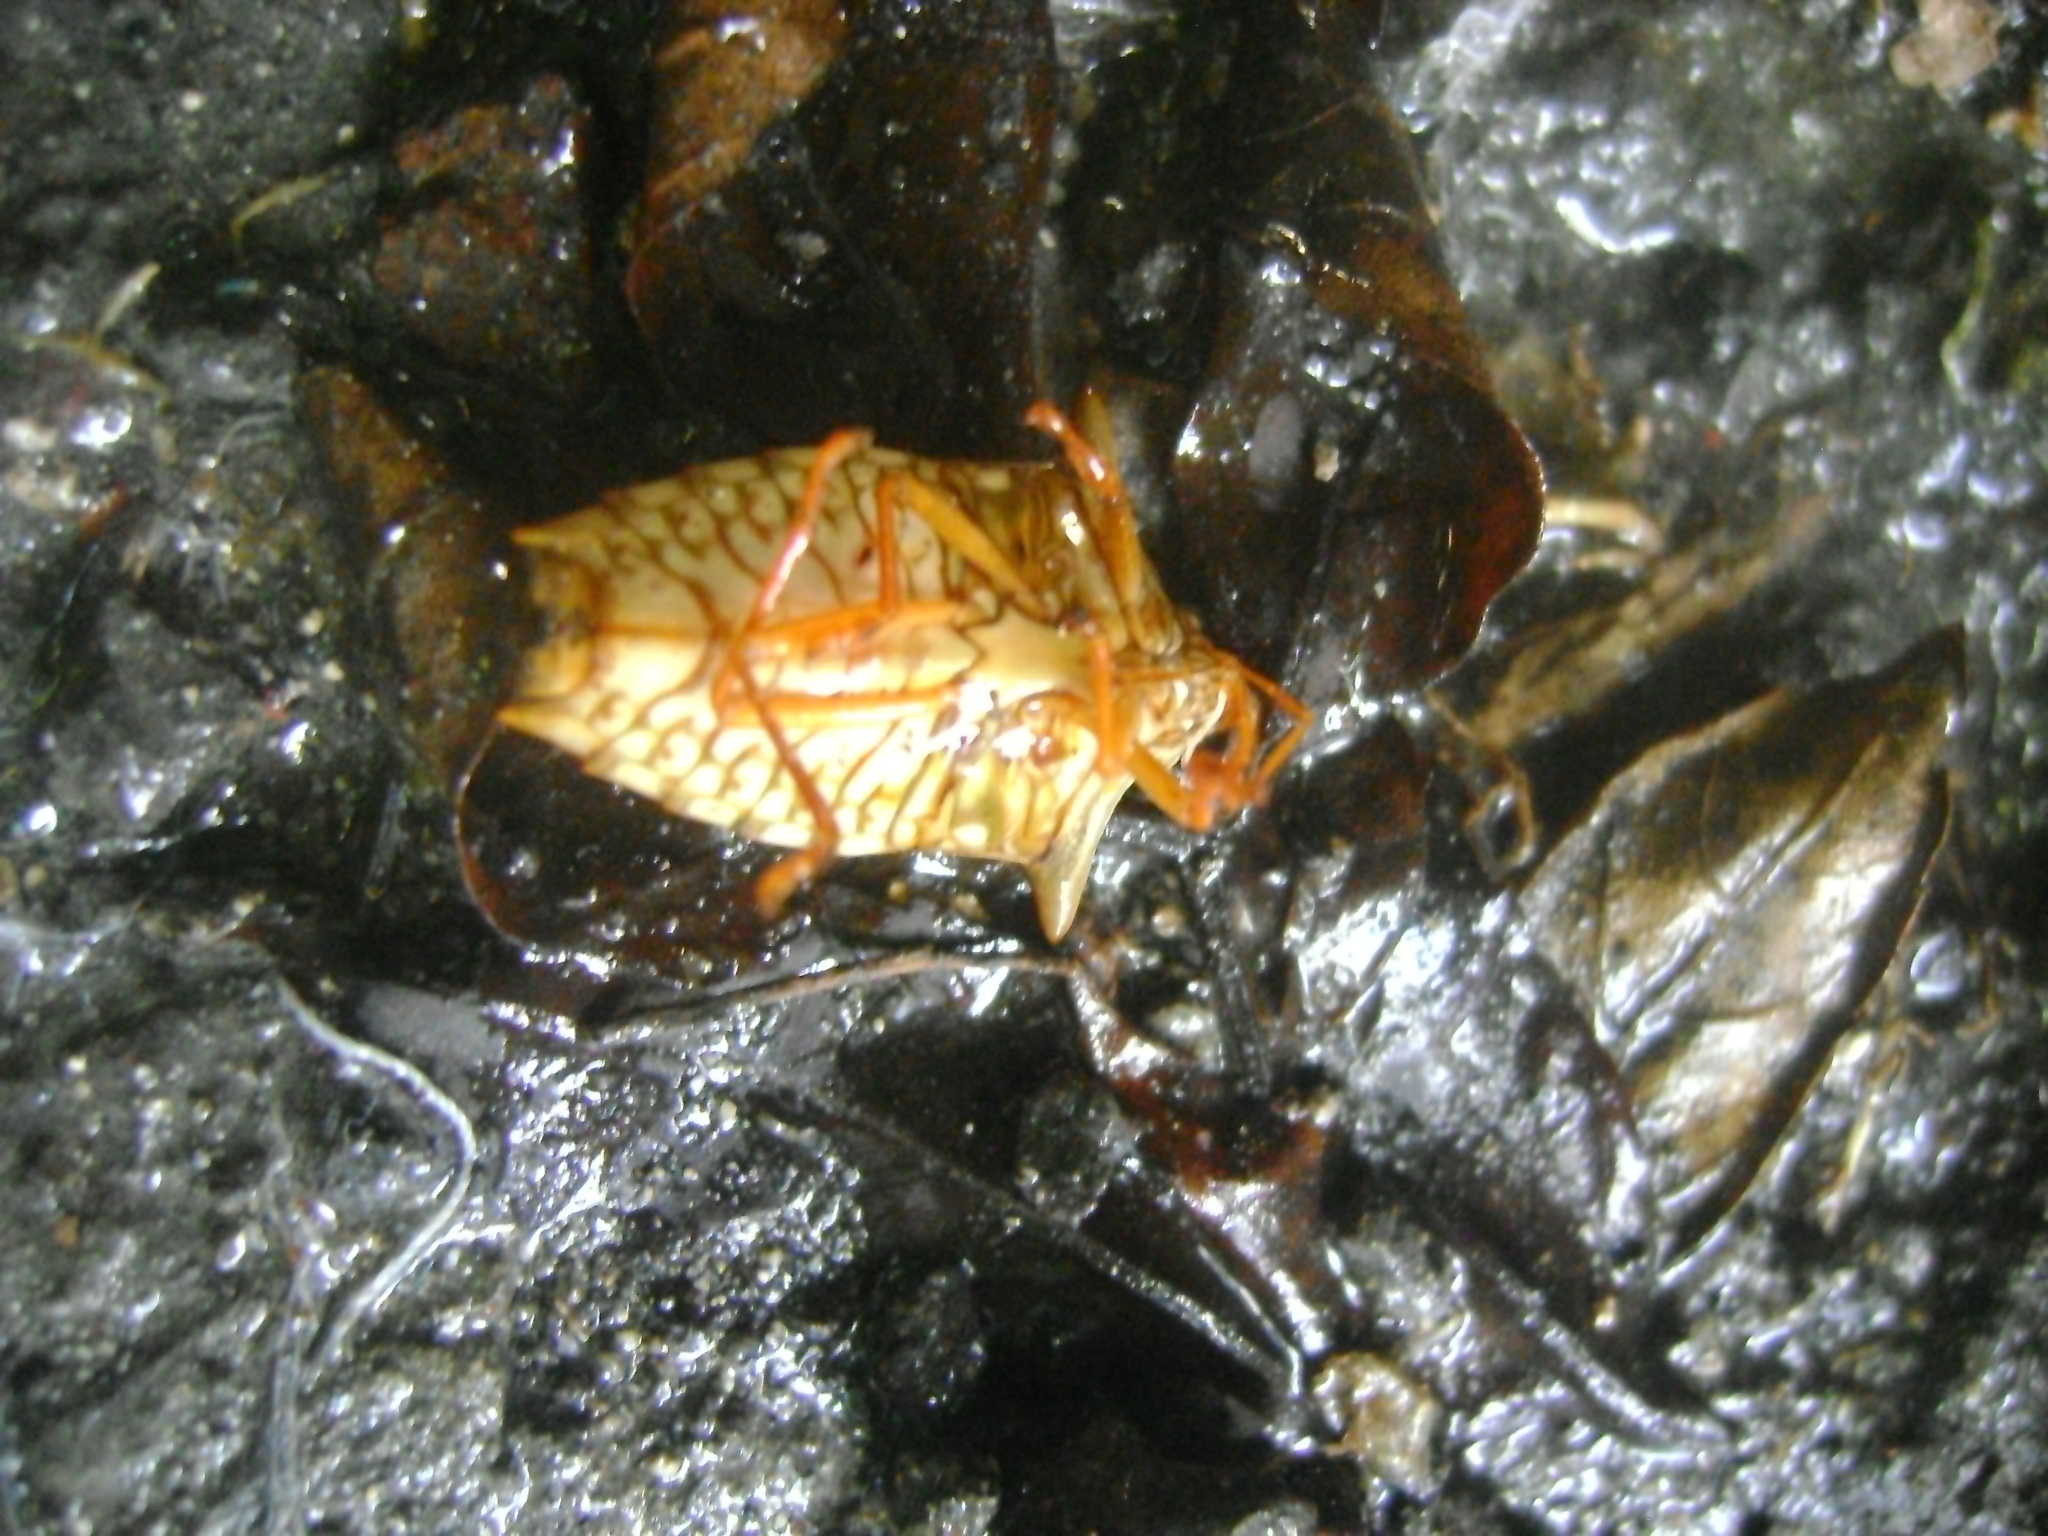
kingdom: Animalia
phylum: Arthropoda
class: Insecta
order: Hemiptera
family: Pentatomidae
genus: Edessa
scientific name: Edessa reticulata
